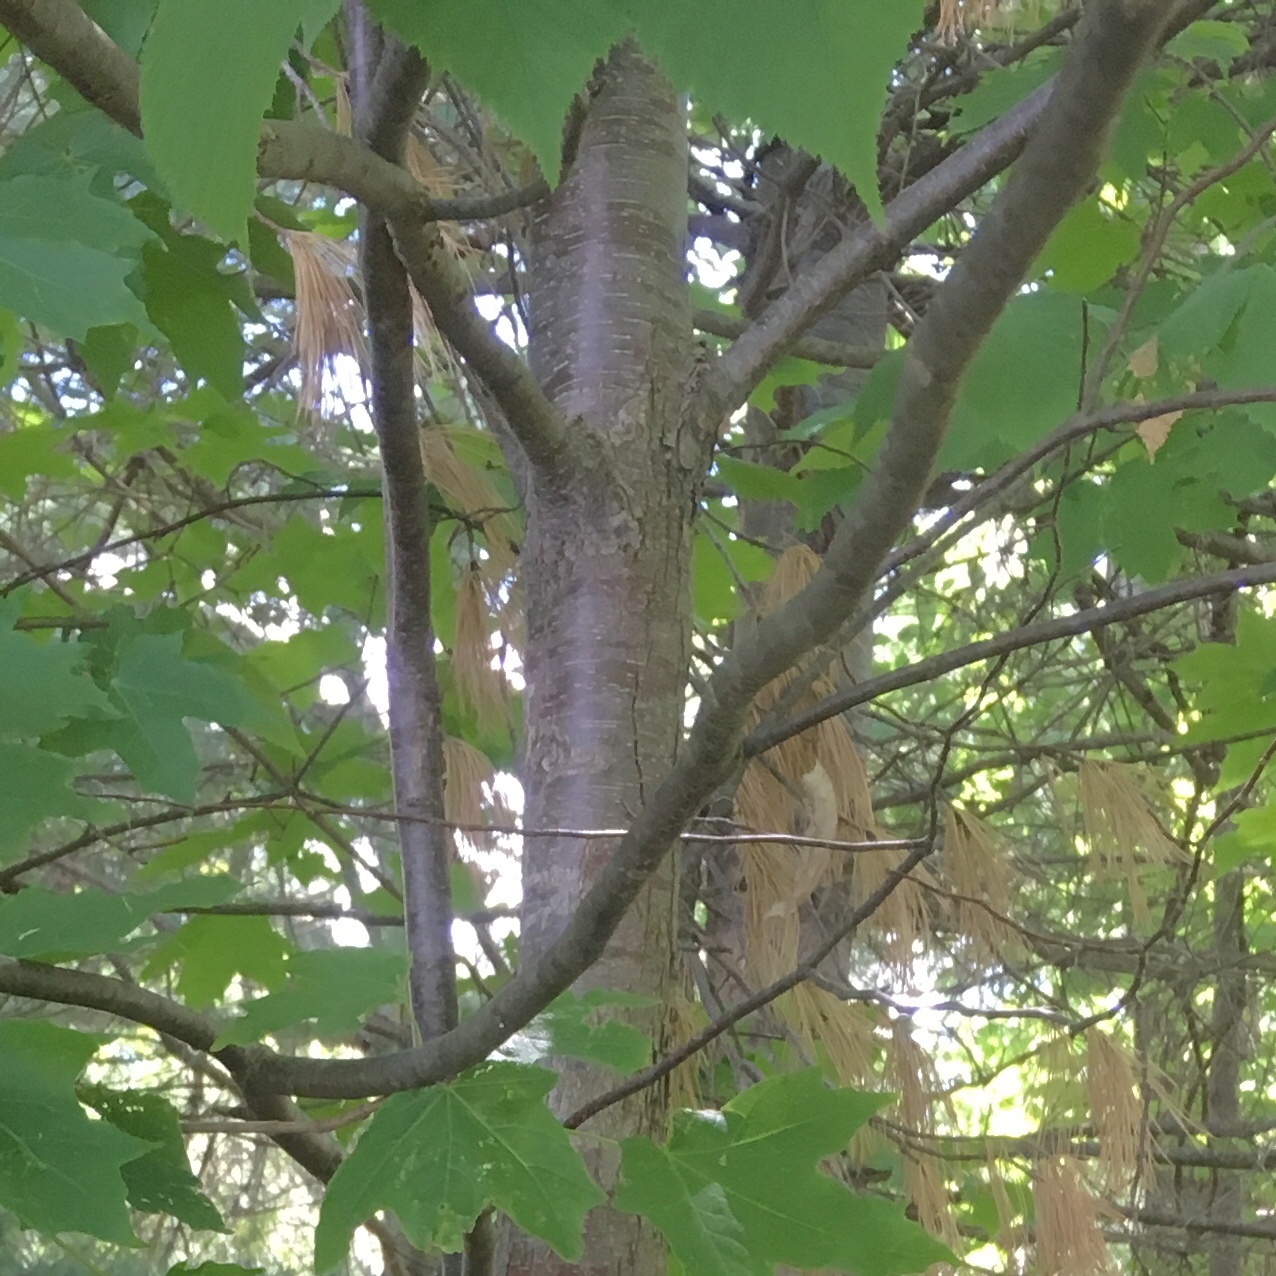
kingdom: Plantae
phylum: Tracheophyta
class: Magnoliopsida
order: Fagales
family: Betulaceae
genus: Ostrya
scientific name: Ostrya virginiana
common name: Ironwood
